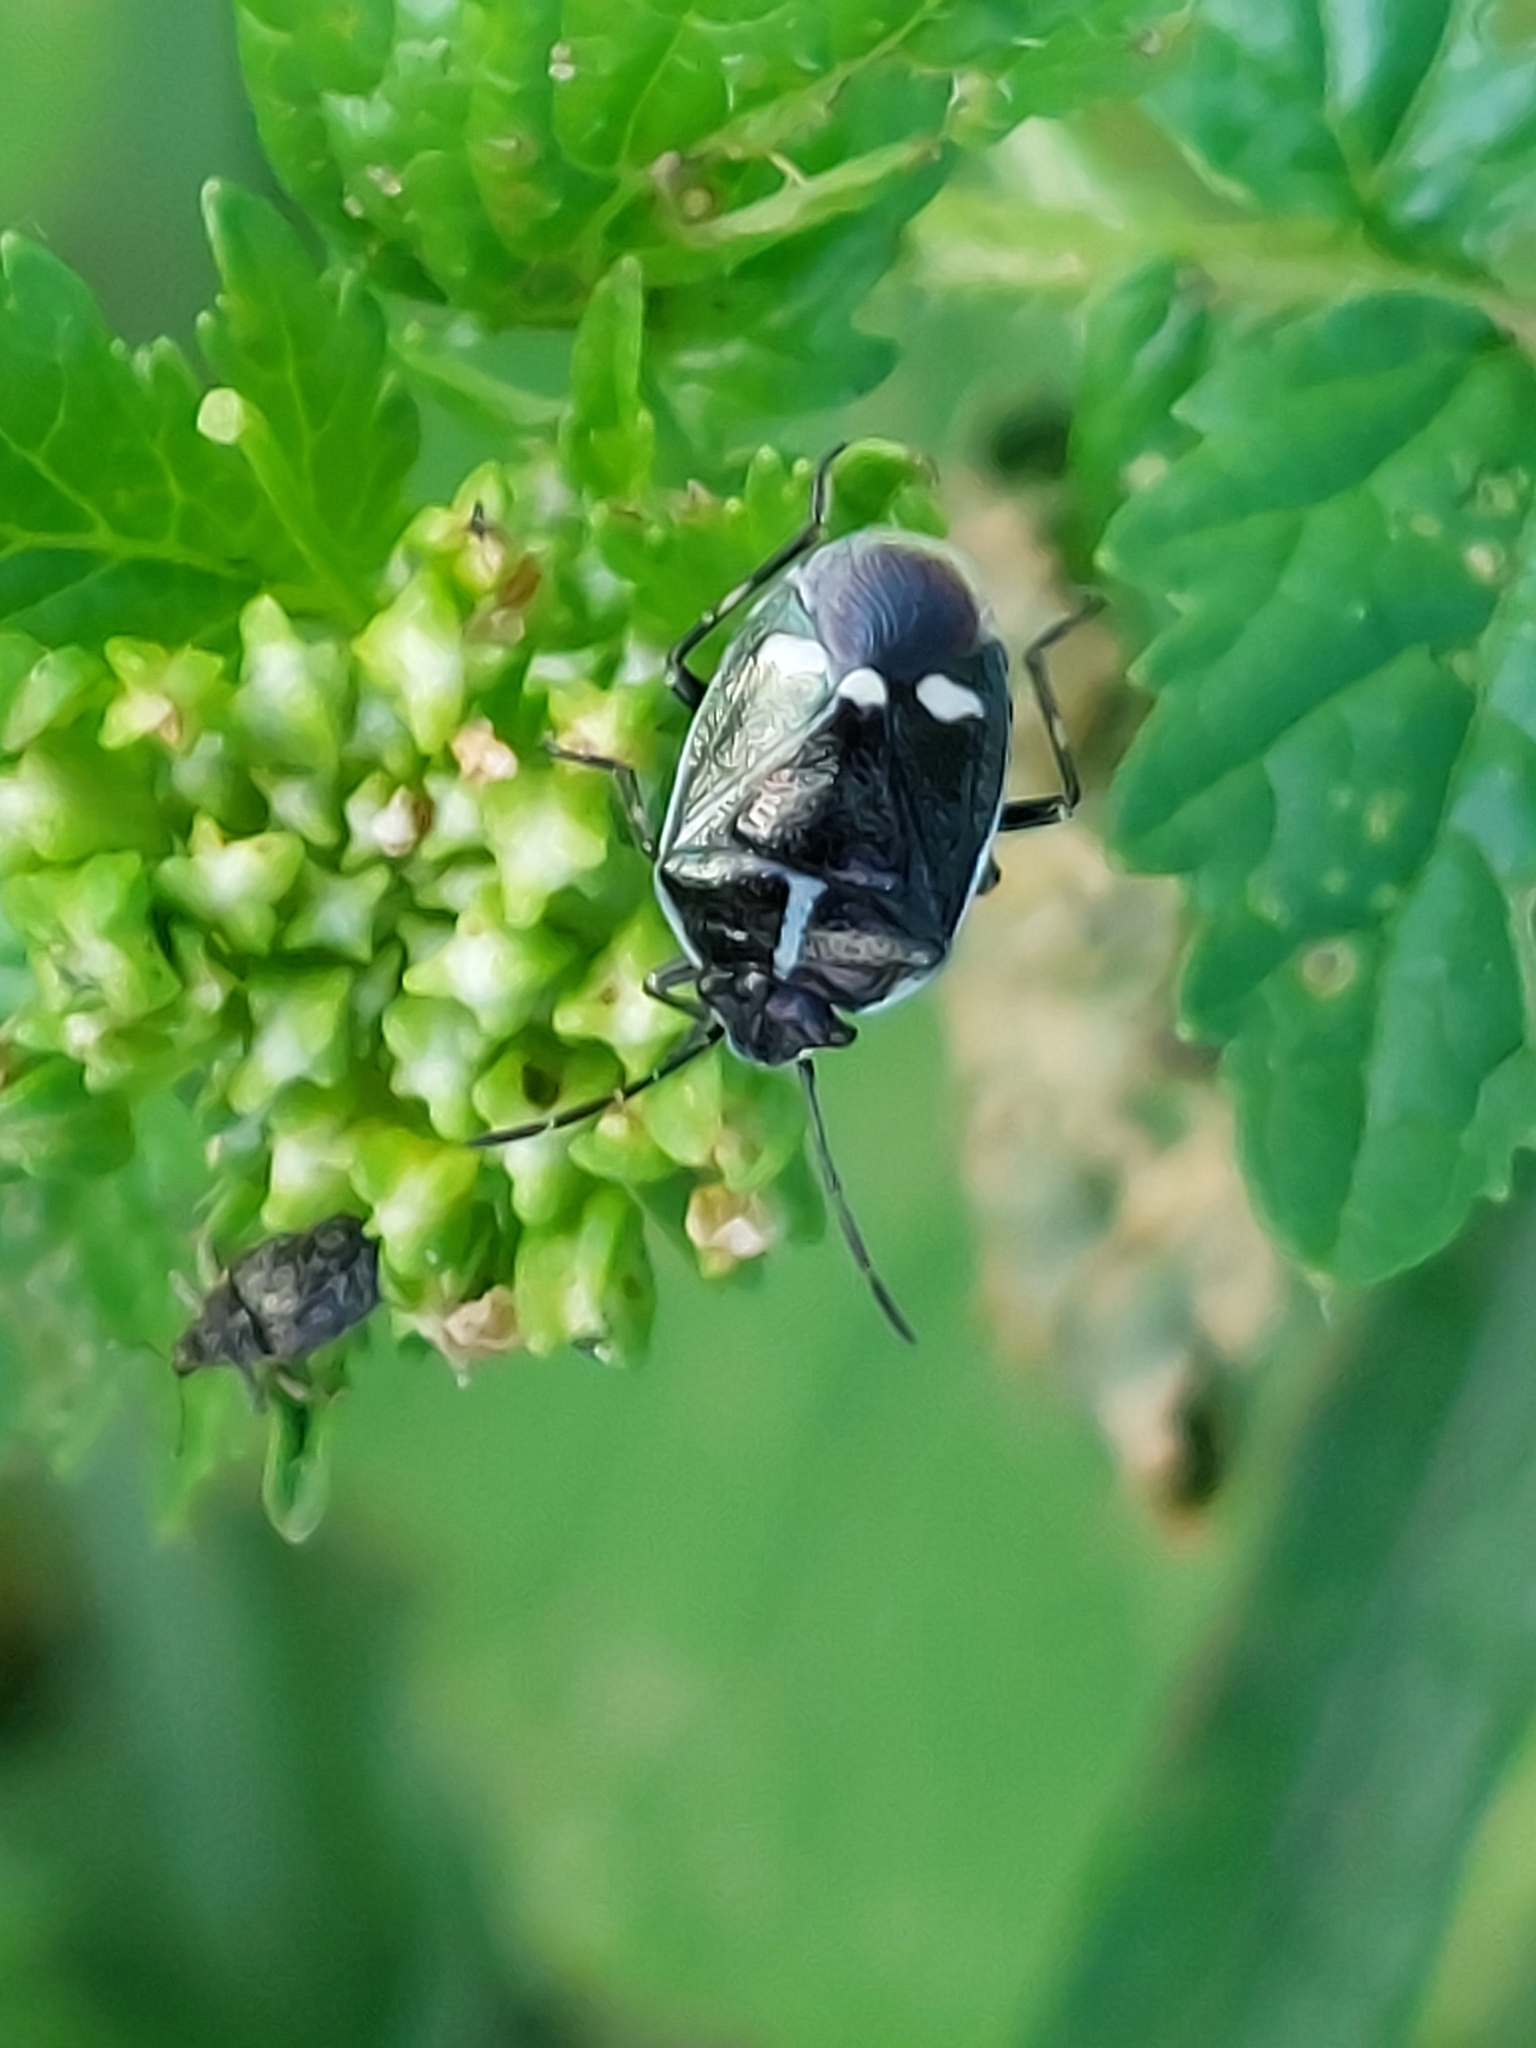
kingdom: Animalia
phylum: Arthropoda
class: Insecta
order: Hemiptera
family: Pentatomidae
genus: Eurydema
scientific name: Eurydema oleracea
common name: Cabbage bug
